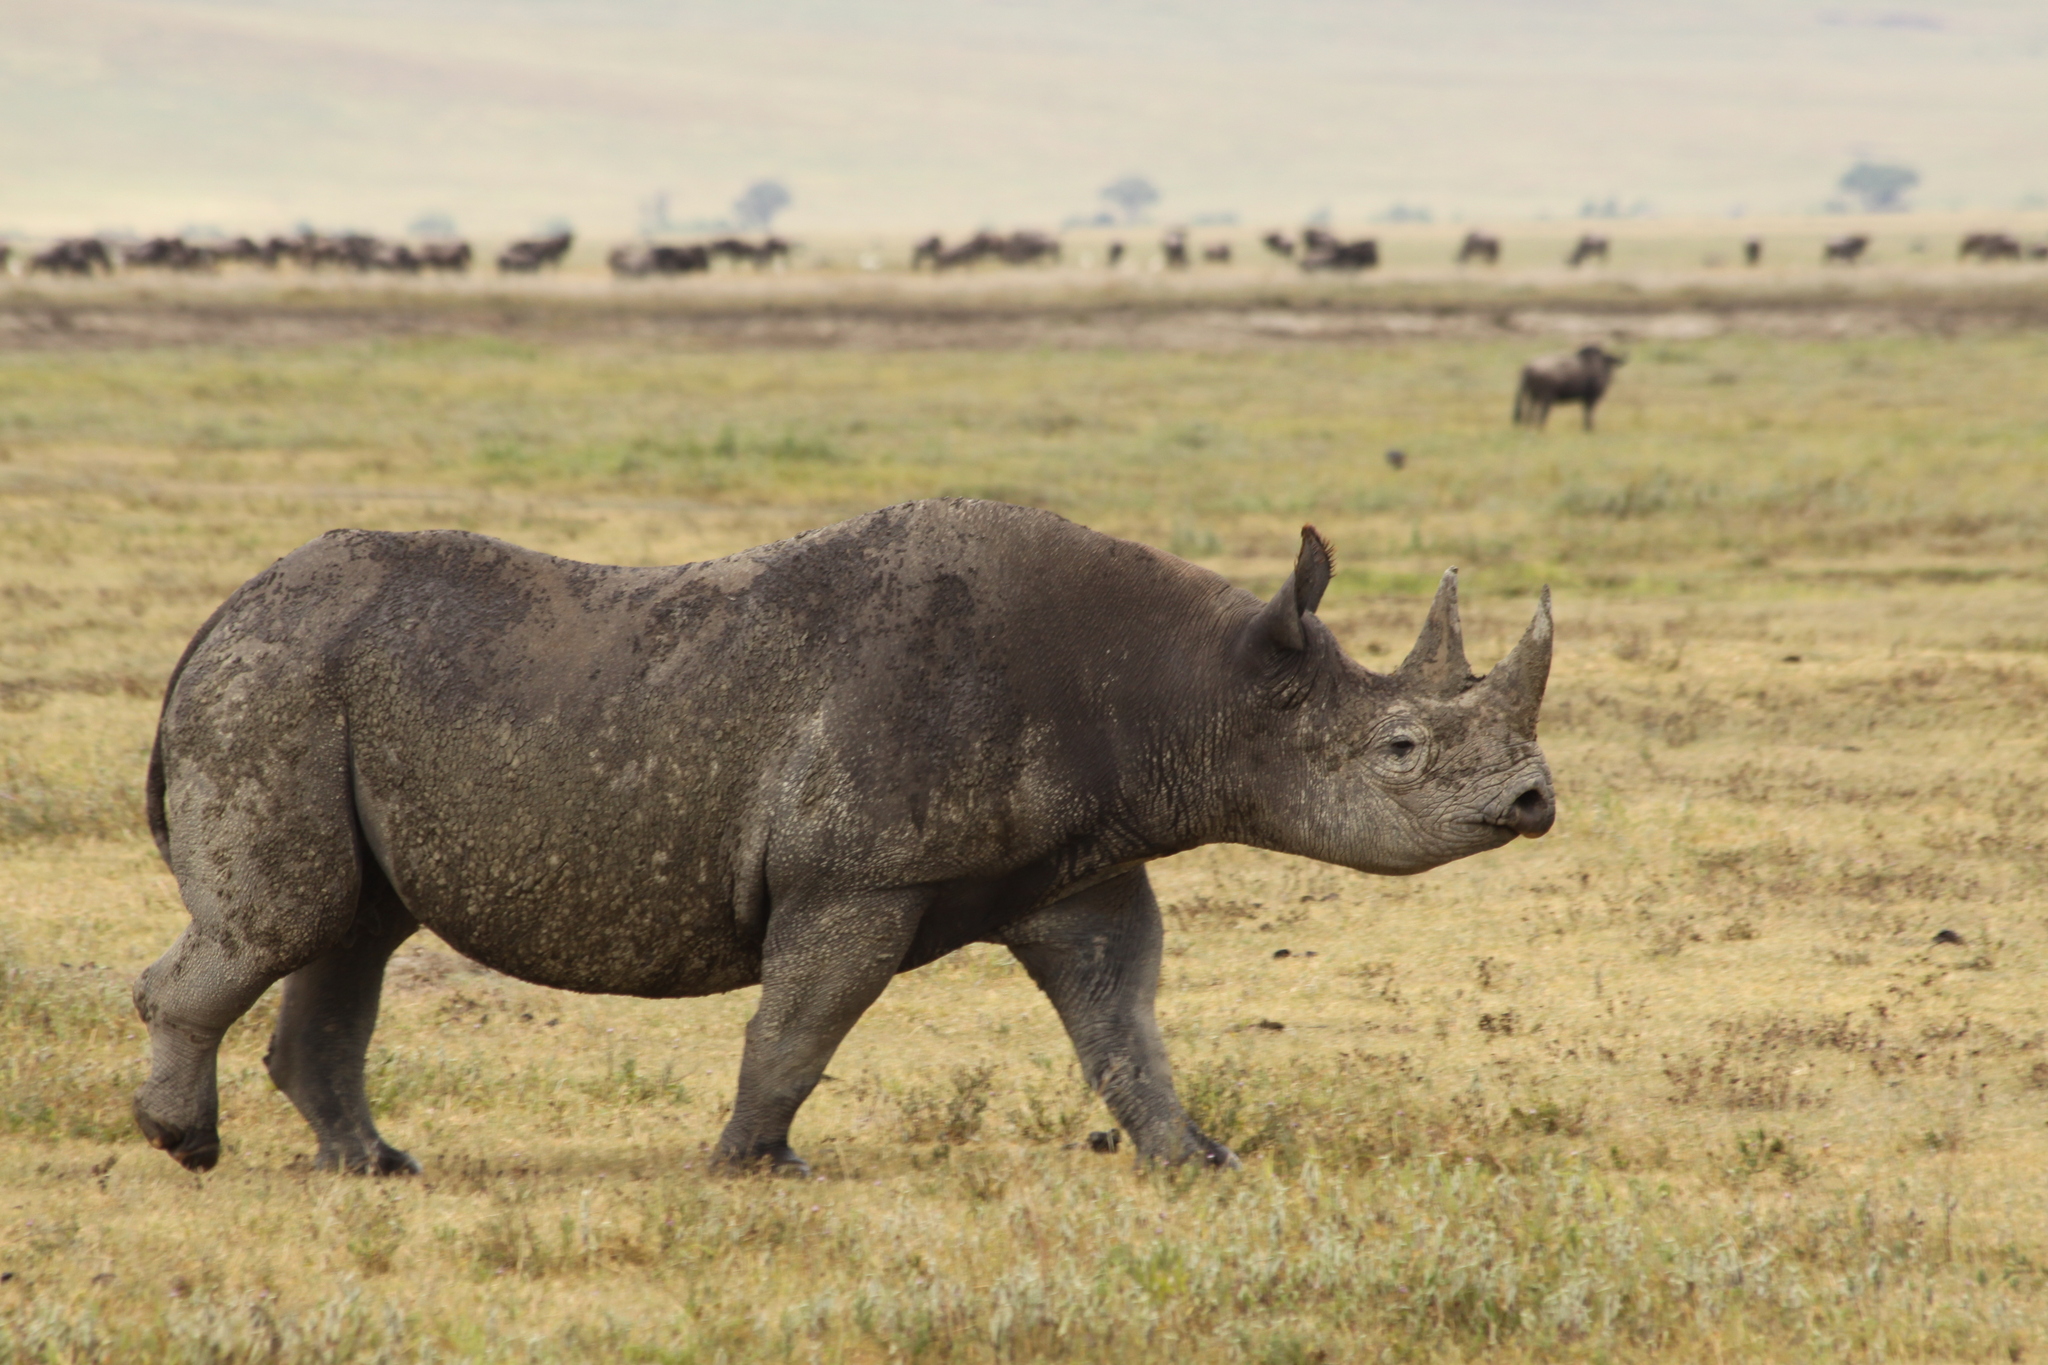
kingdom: Animalia
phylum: Chordata
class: Mammalia
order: Perissodactyla
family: Rhinocerotidae
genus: Diceros
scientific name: Diceros bicornis
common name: Black rhinoceros
